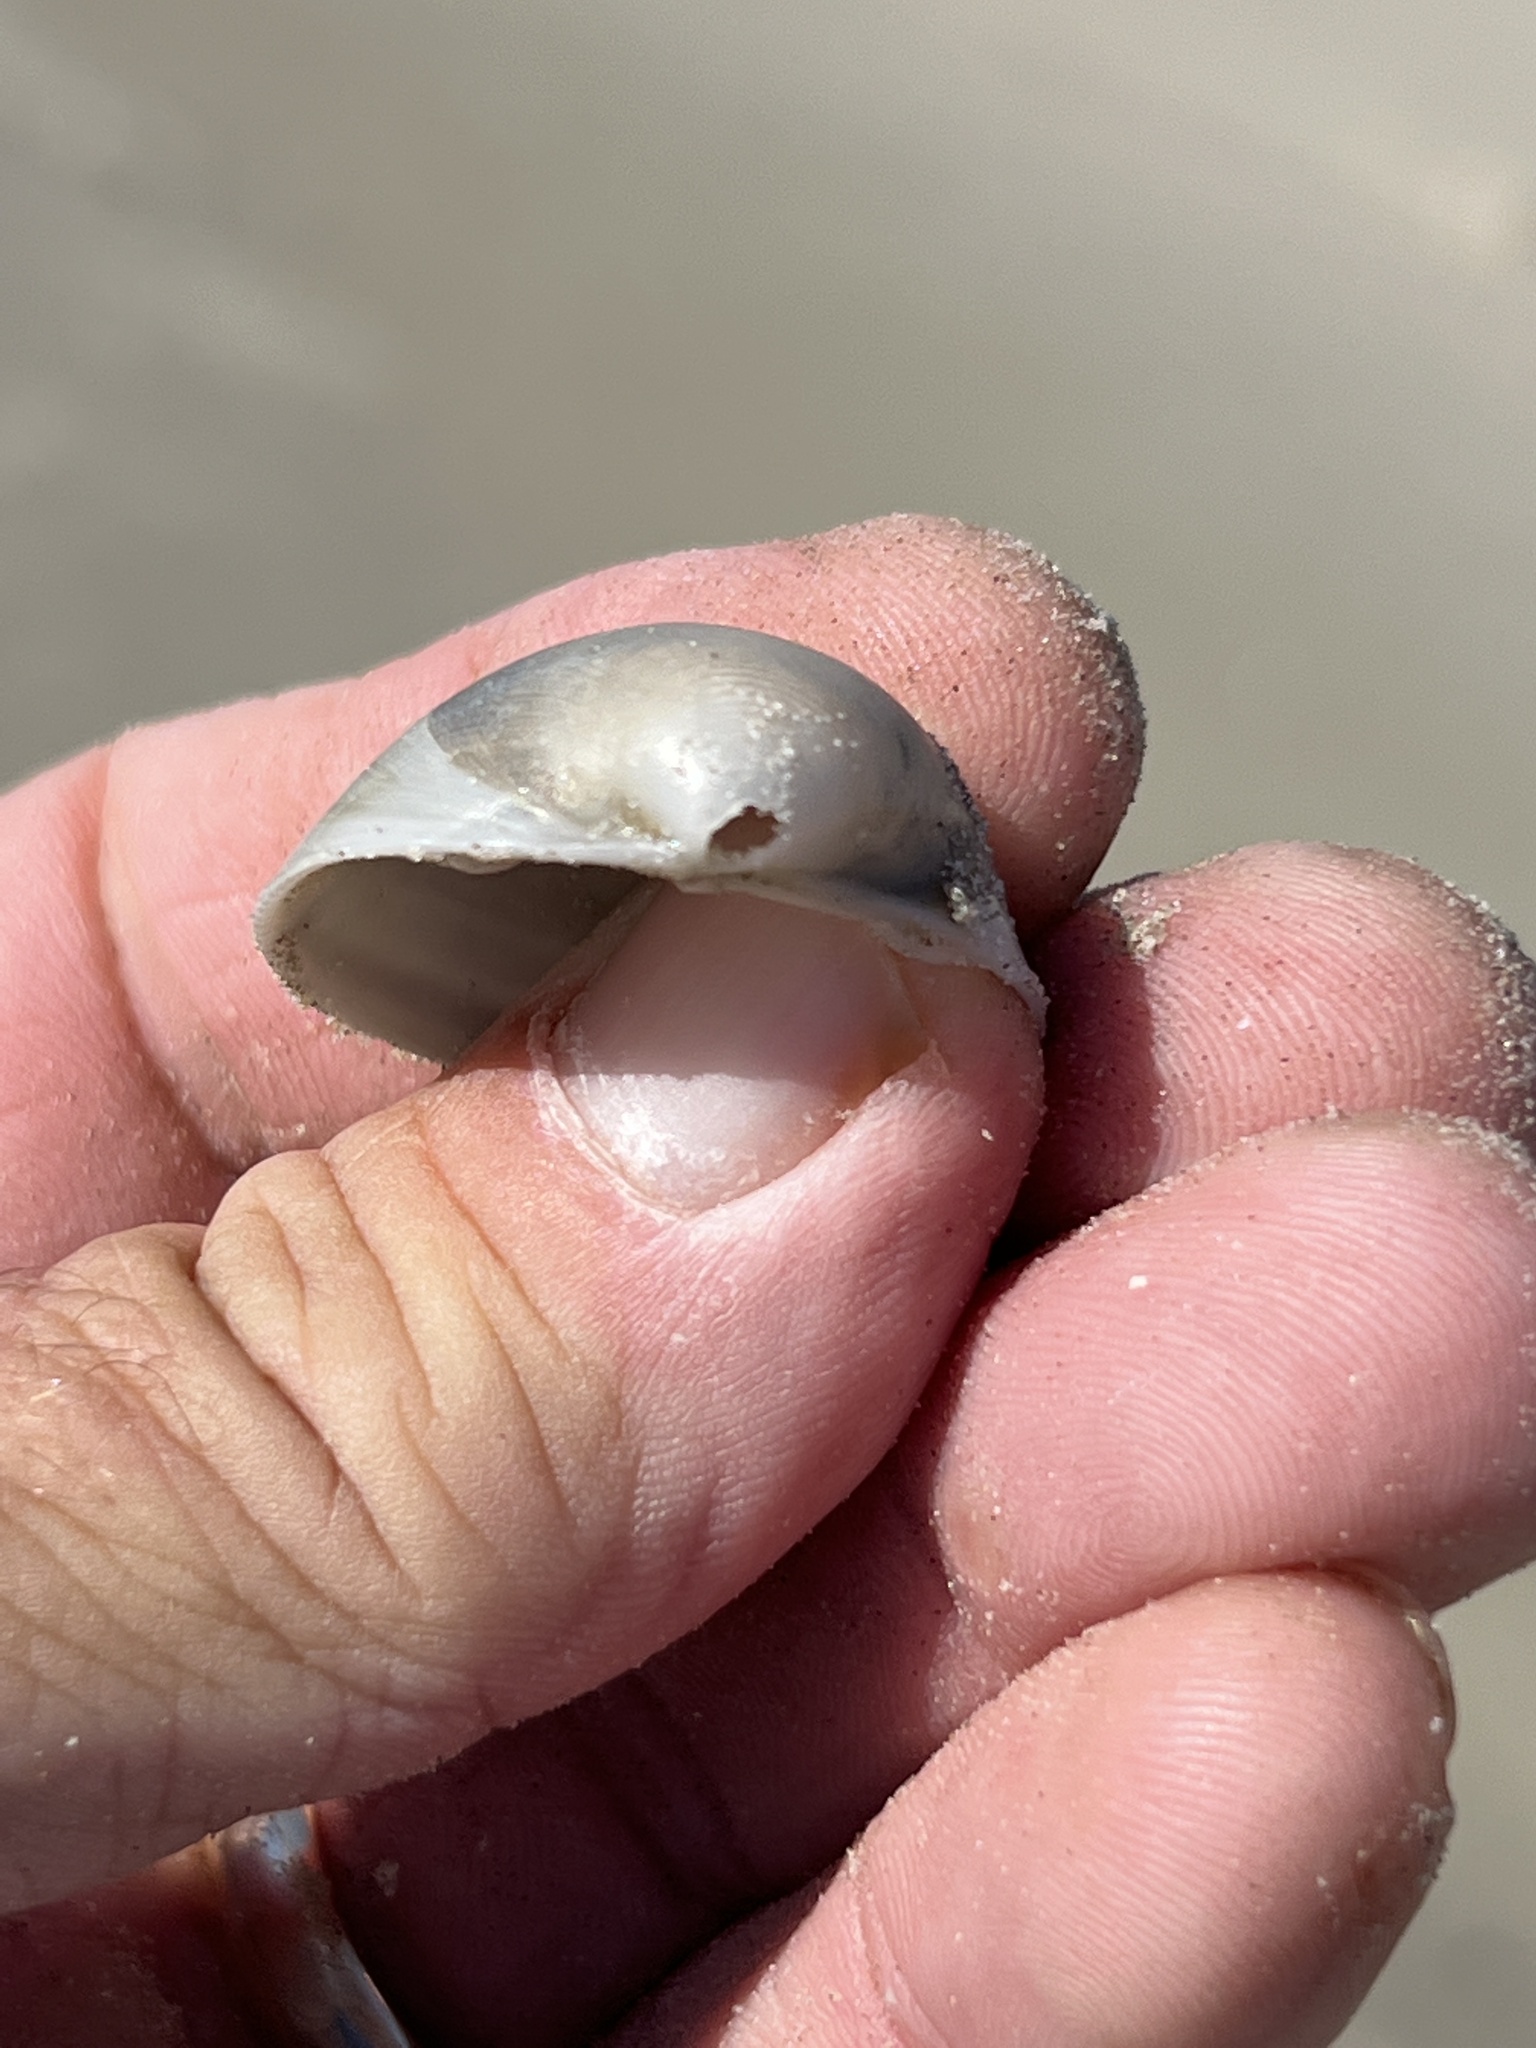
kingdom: Animalia
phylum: Mollusca
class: Bivalvia
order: Cardiida
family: Cardiidae
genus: Laevicardium
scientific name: Laevicardium serratum
